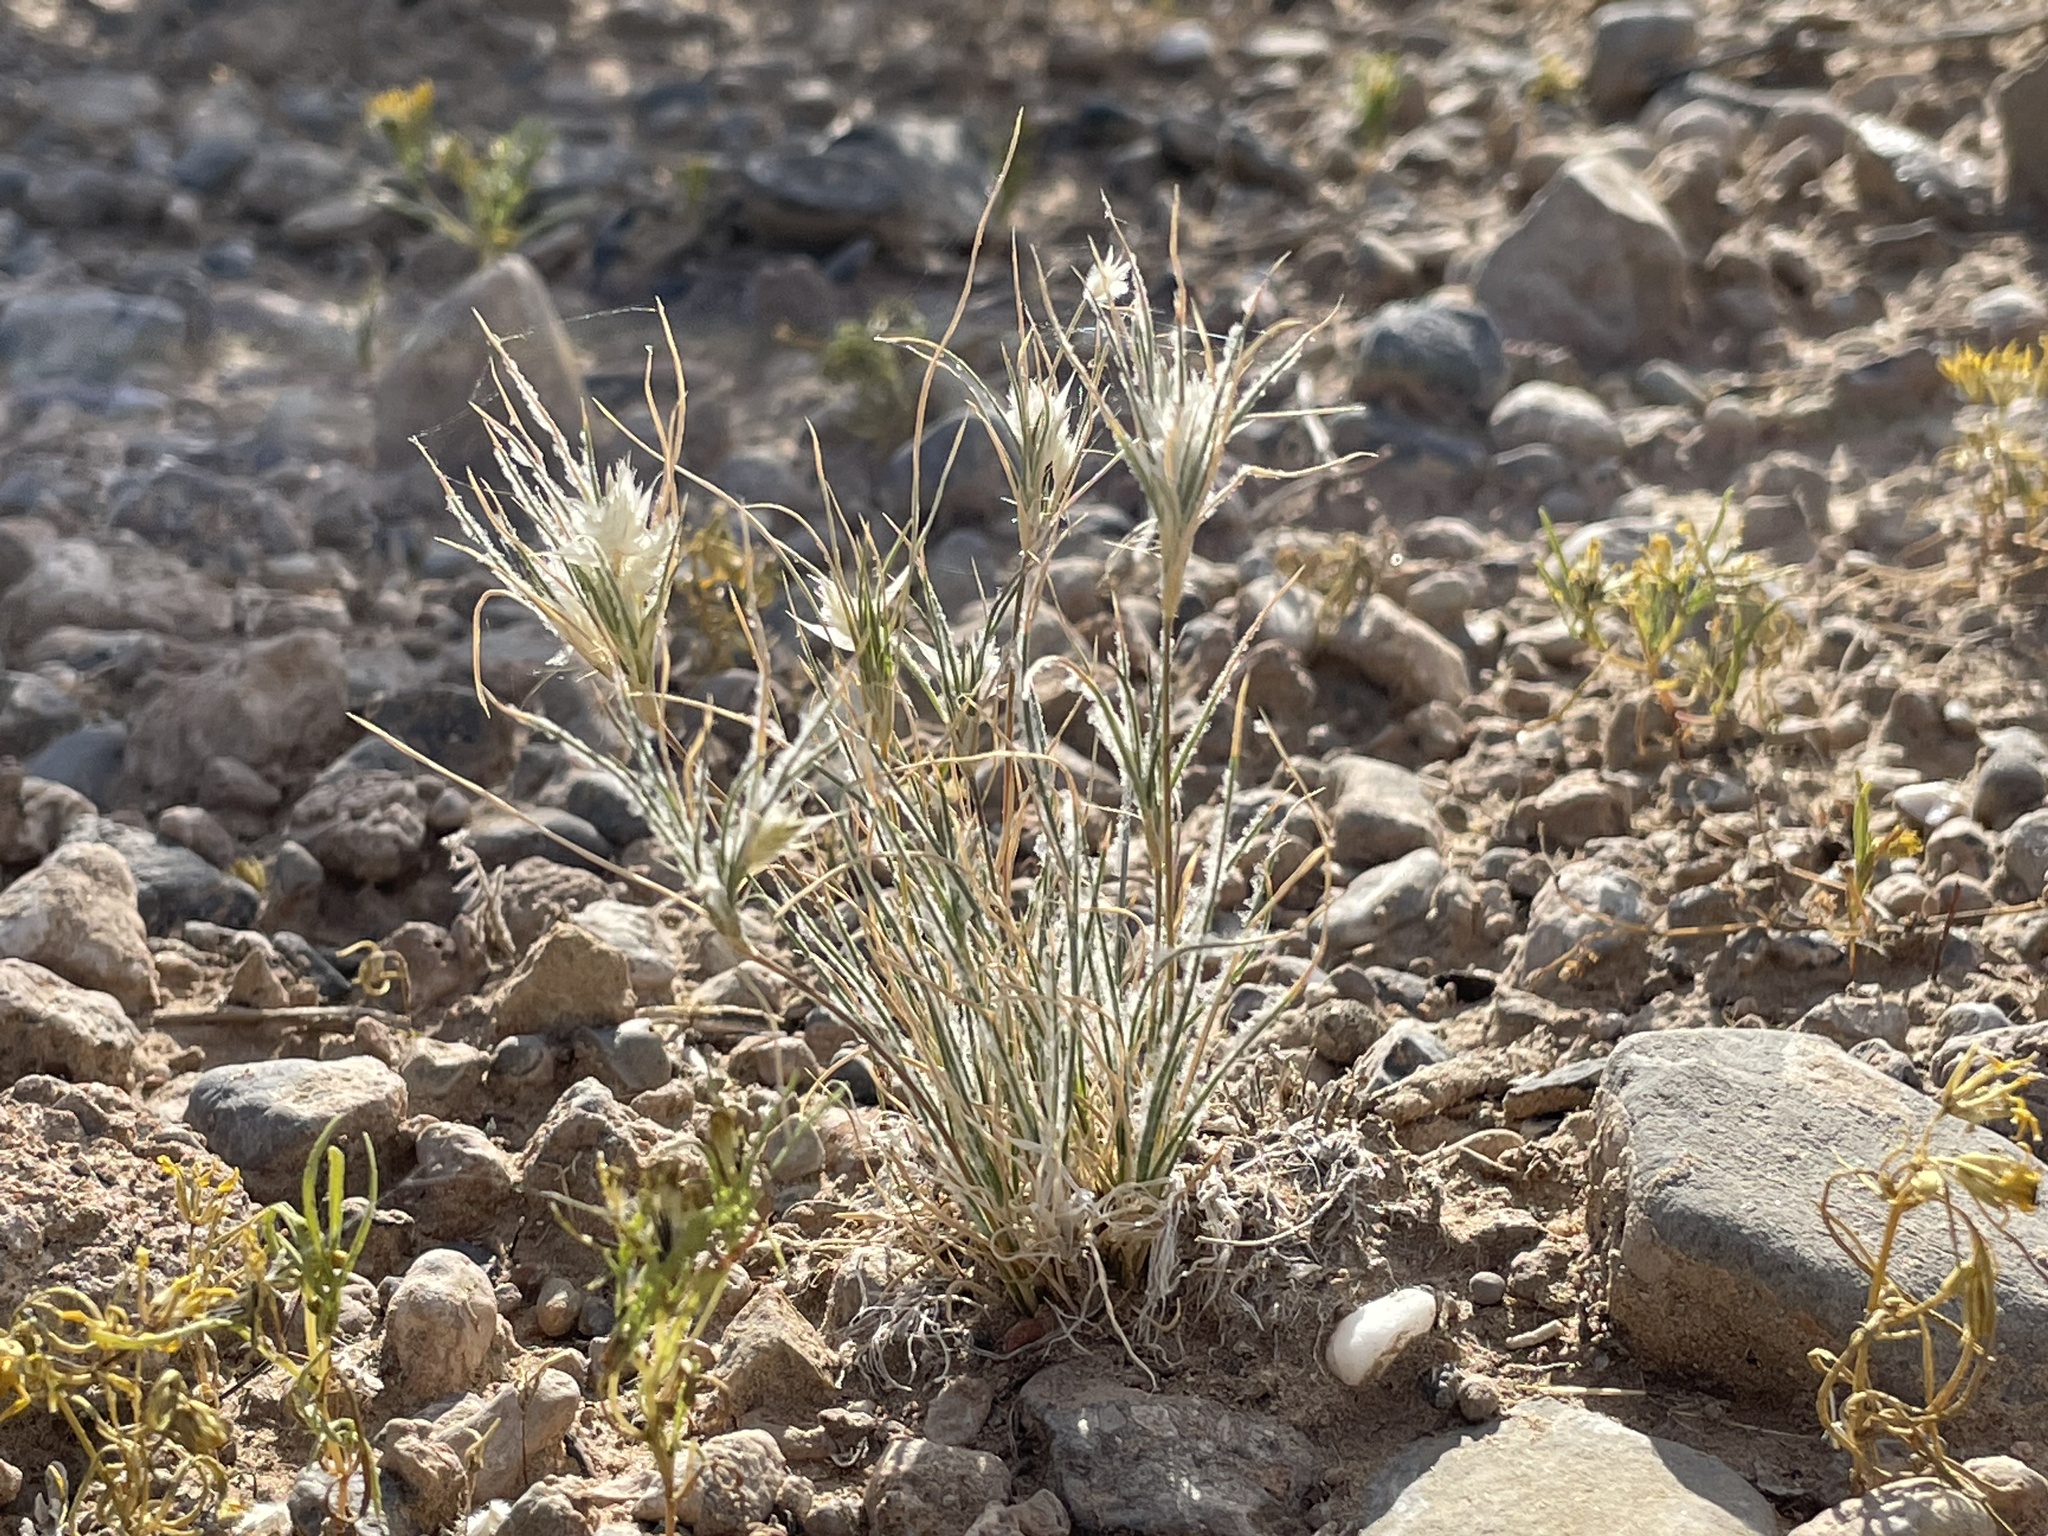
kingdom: Plantae
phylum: Tracheophyta
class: Liliopsida
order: Poales
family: Poaceae
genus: Dasyochloa
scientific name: Dasyochloa pulchella
